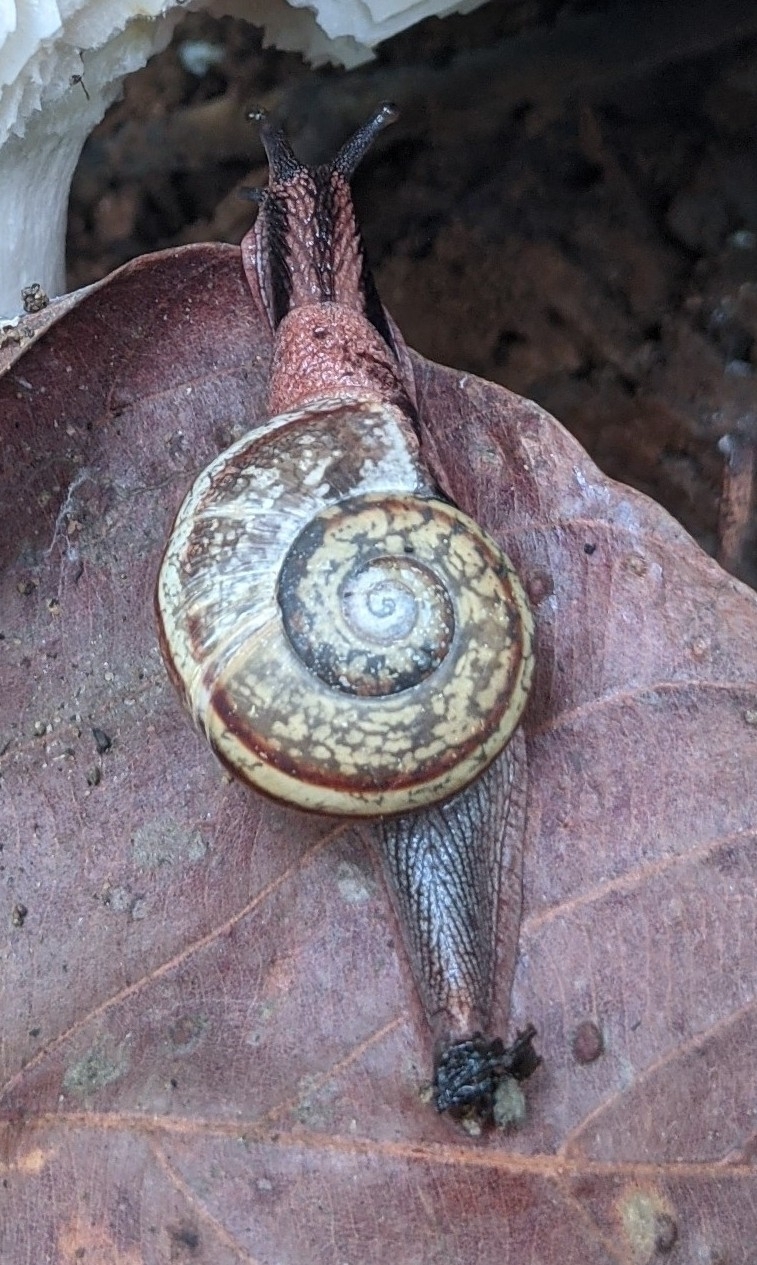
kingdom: Animalia
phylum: Mollusca
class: Gastropoda
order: Stylommatophora
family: Ariophantidae
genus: Ariophanta
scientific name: Ariophanta exilis
